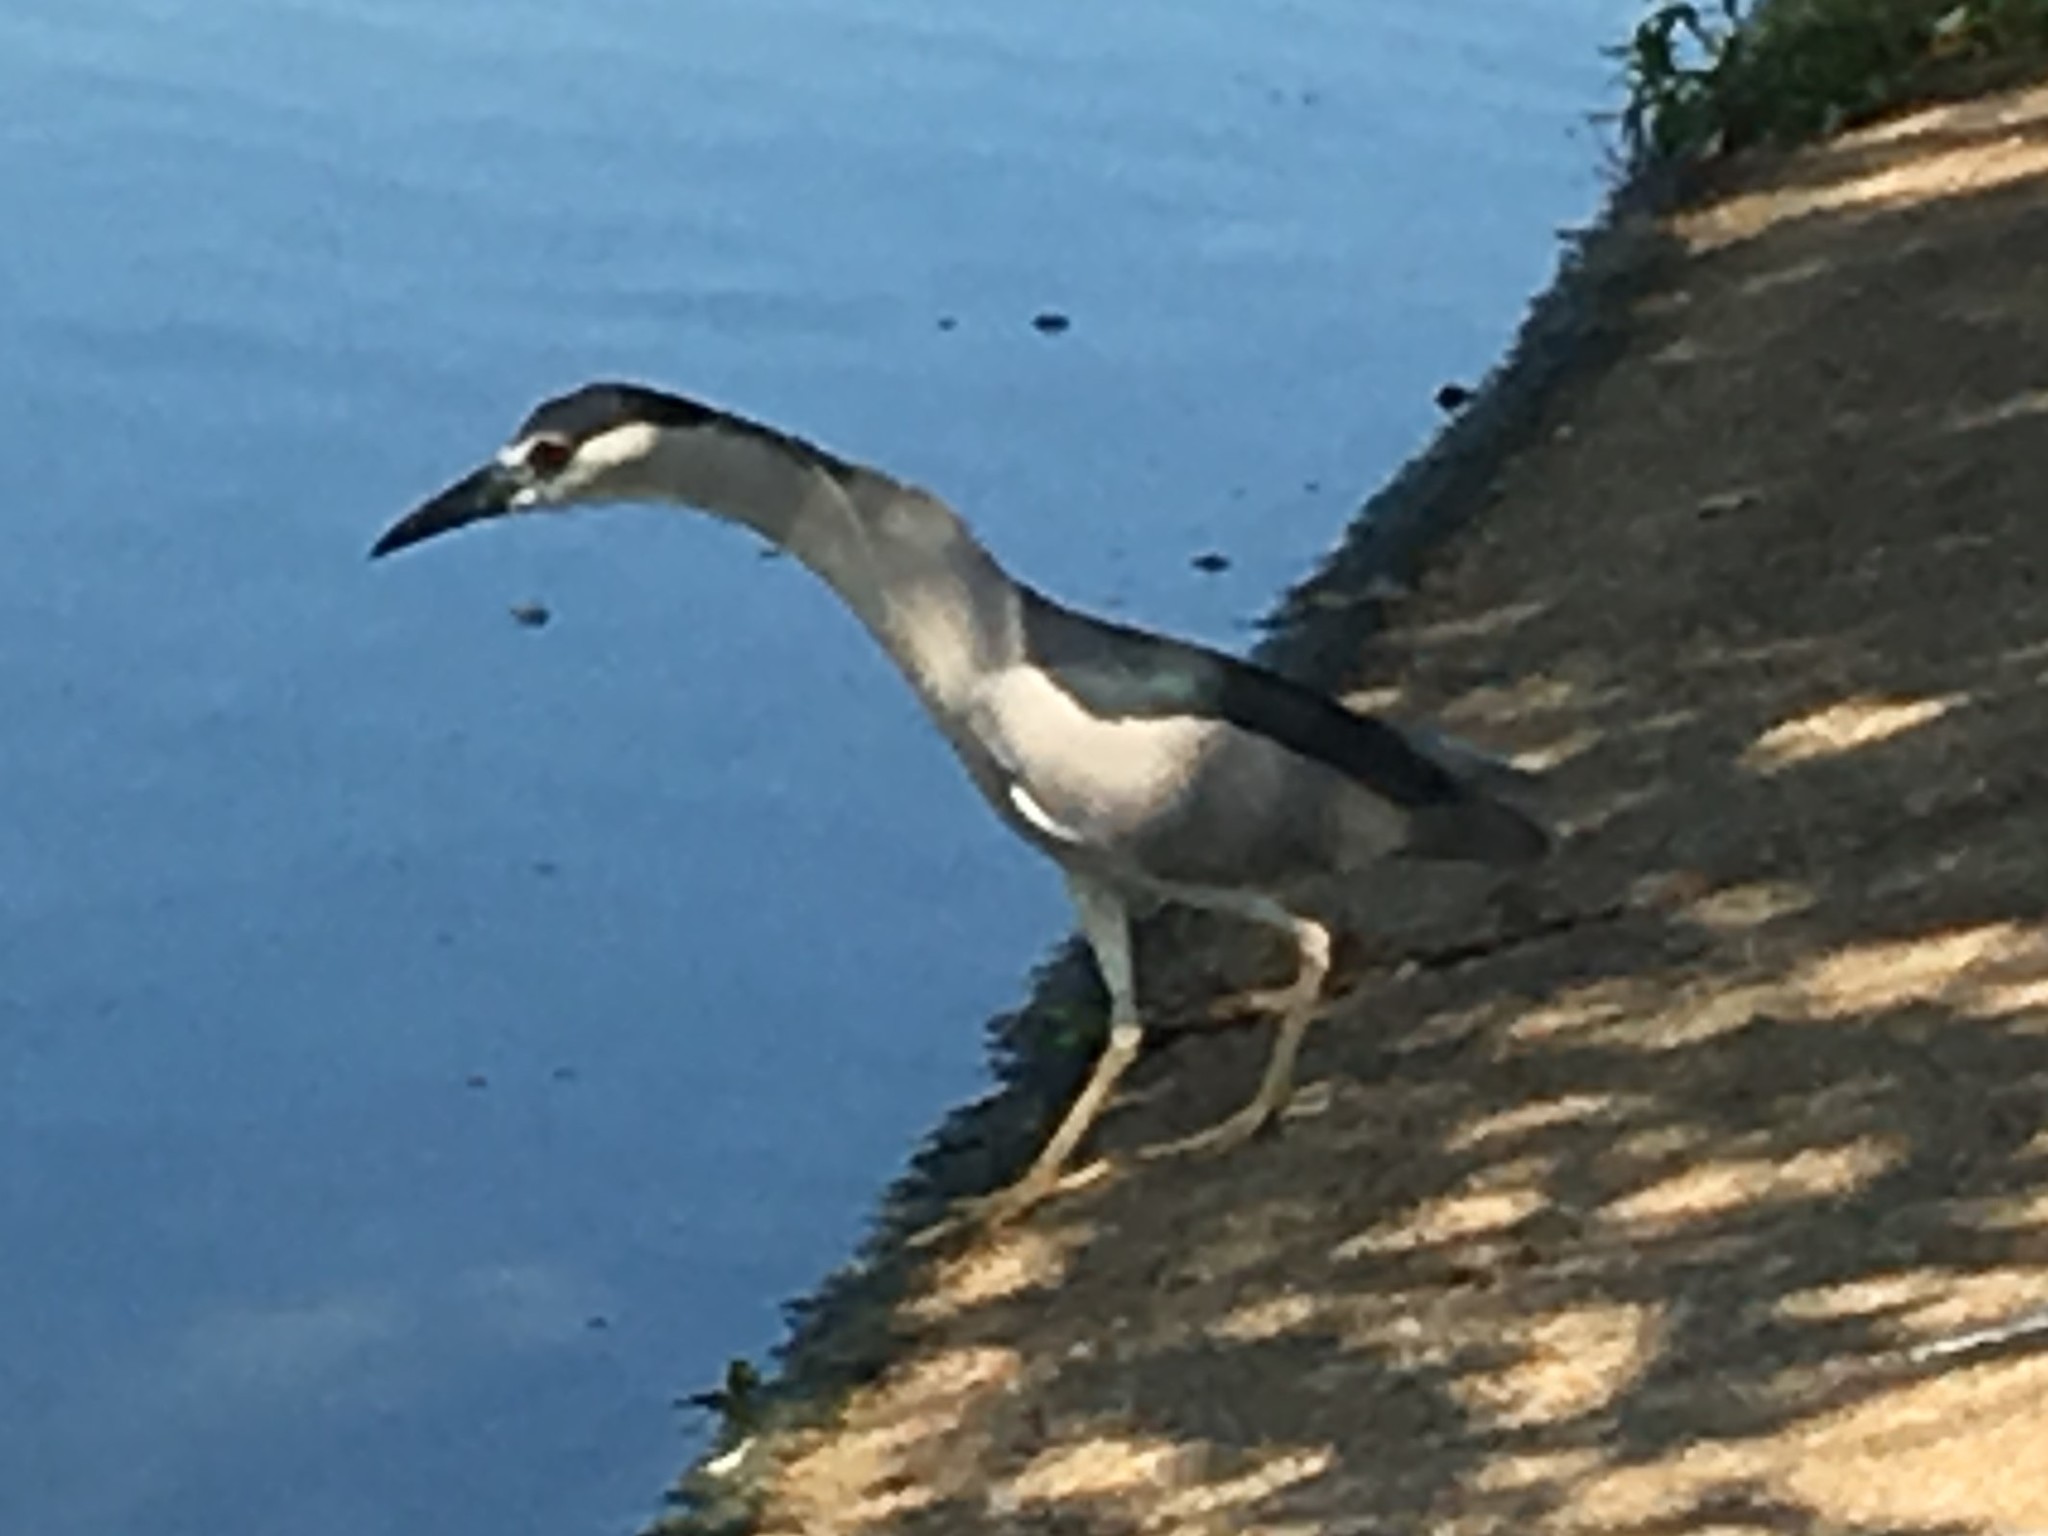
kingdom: Animalia
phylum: Chordata
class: Aves
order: Pelecaniformes
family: Ardeidae
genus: Nycticorax
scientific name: Nycticorax nycticorax
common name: Black-crowned night heron
